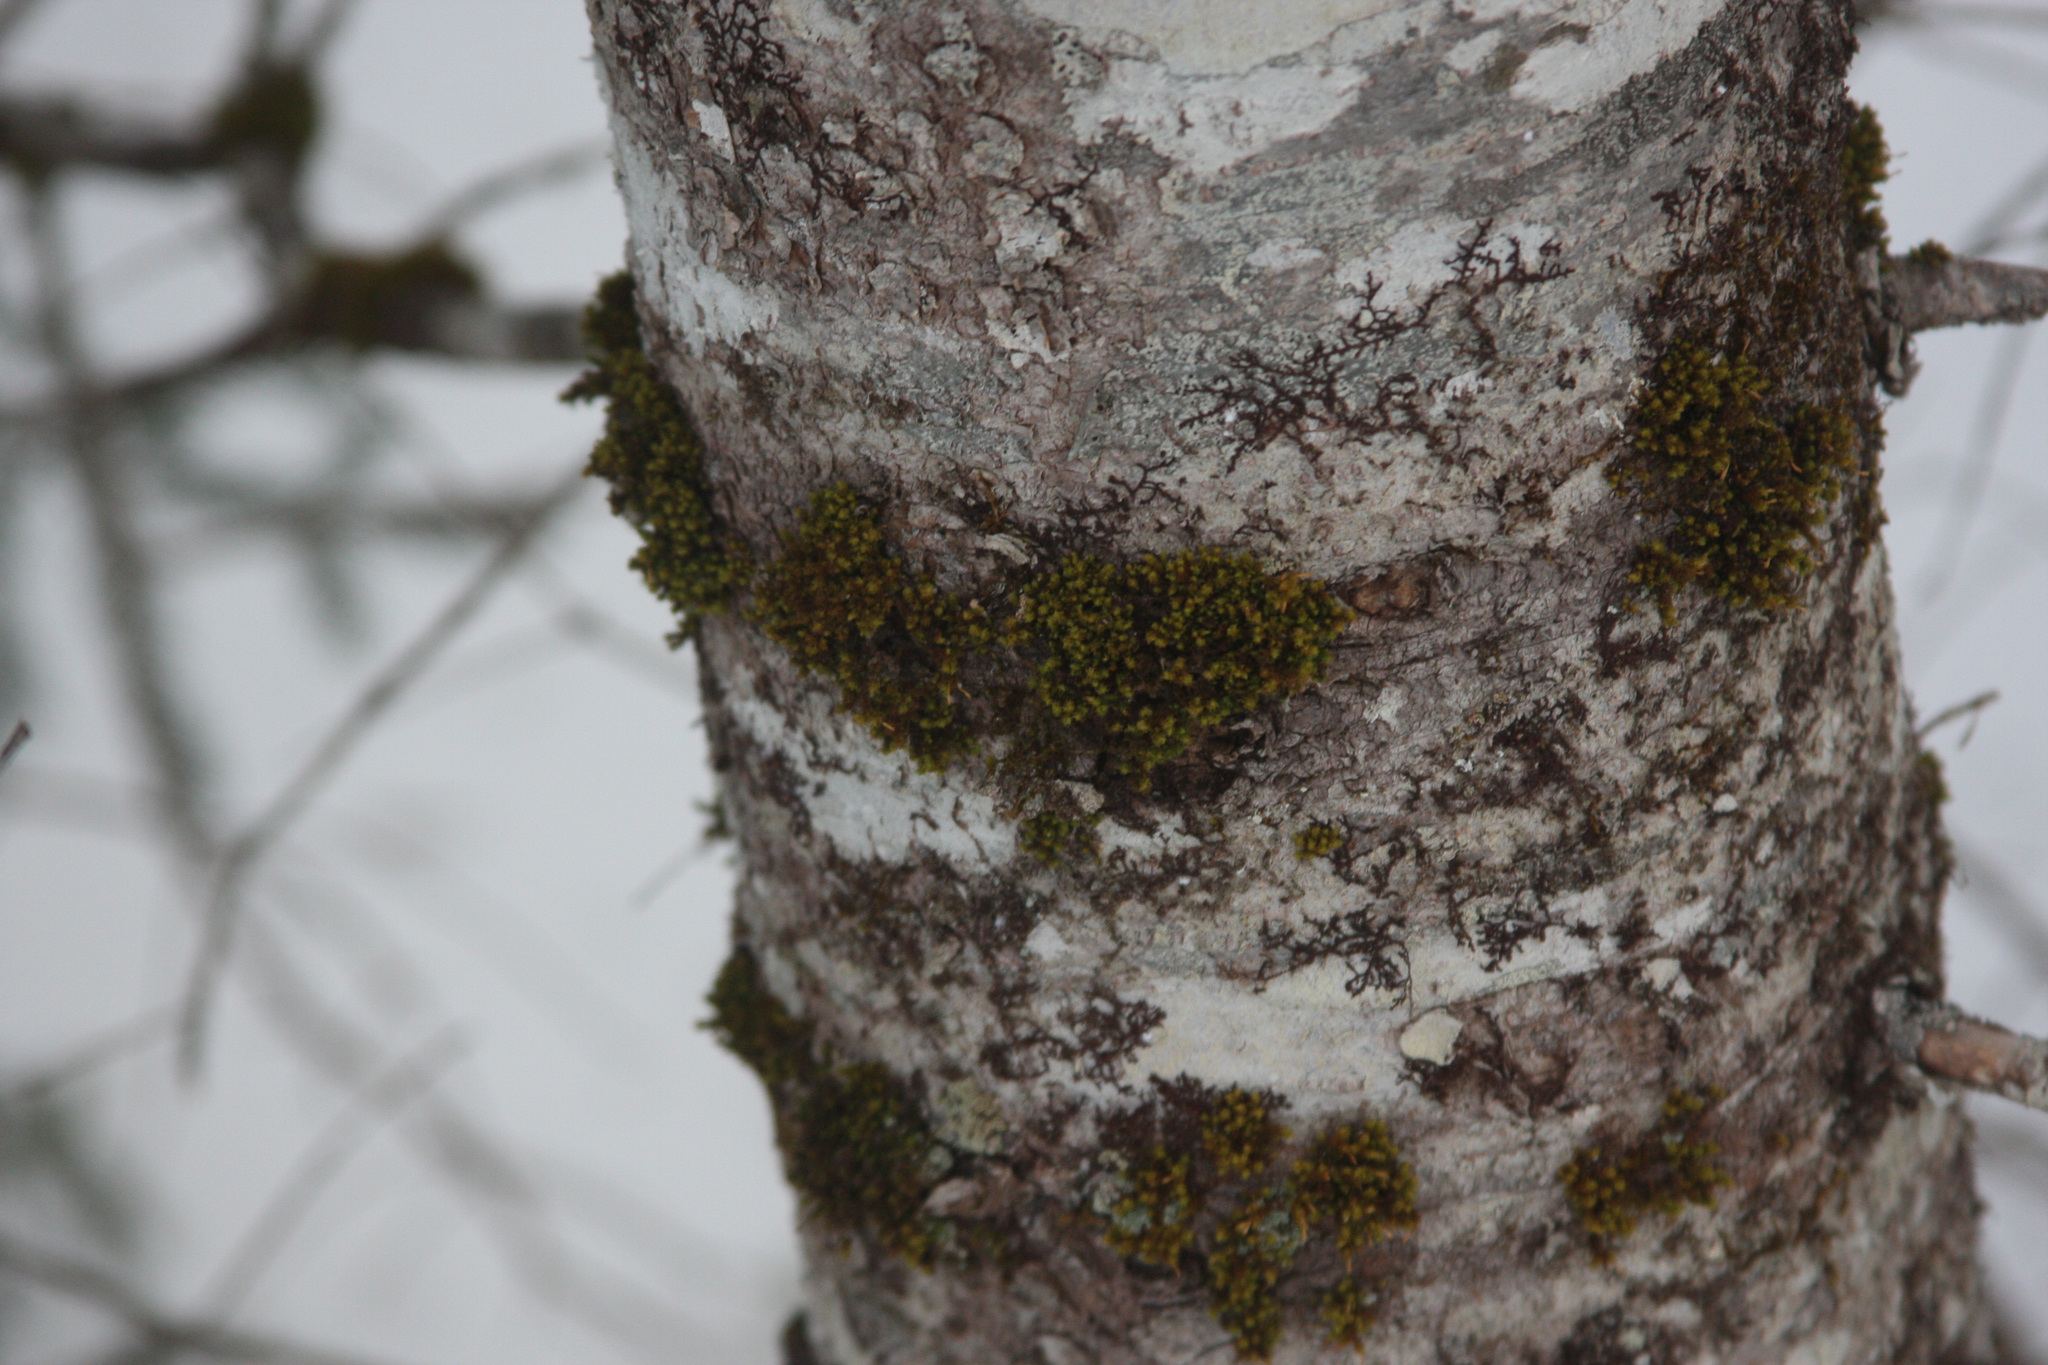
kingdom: Plantae
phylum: Bryophyta
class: Bryopsida
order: Orthotrichales
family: Orthotrichaceae
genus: Ulota
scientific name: Ulota crispa
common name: Crisped pincushion moss
